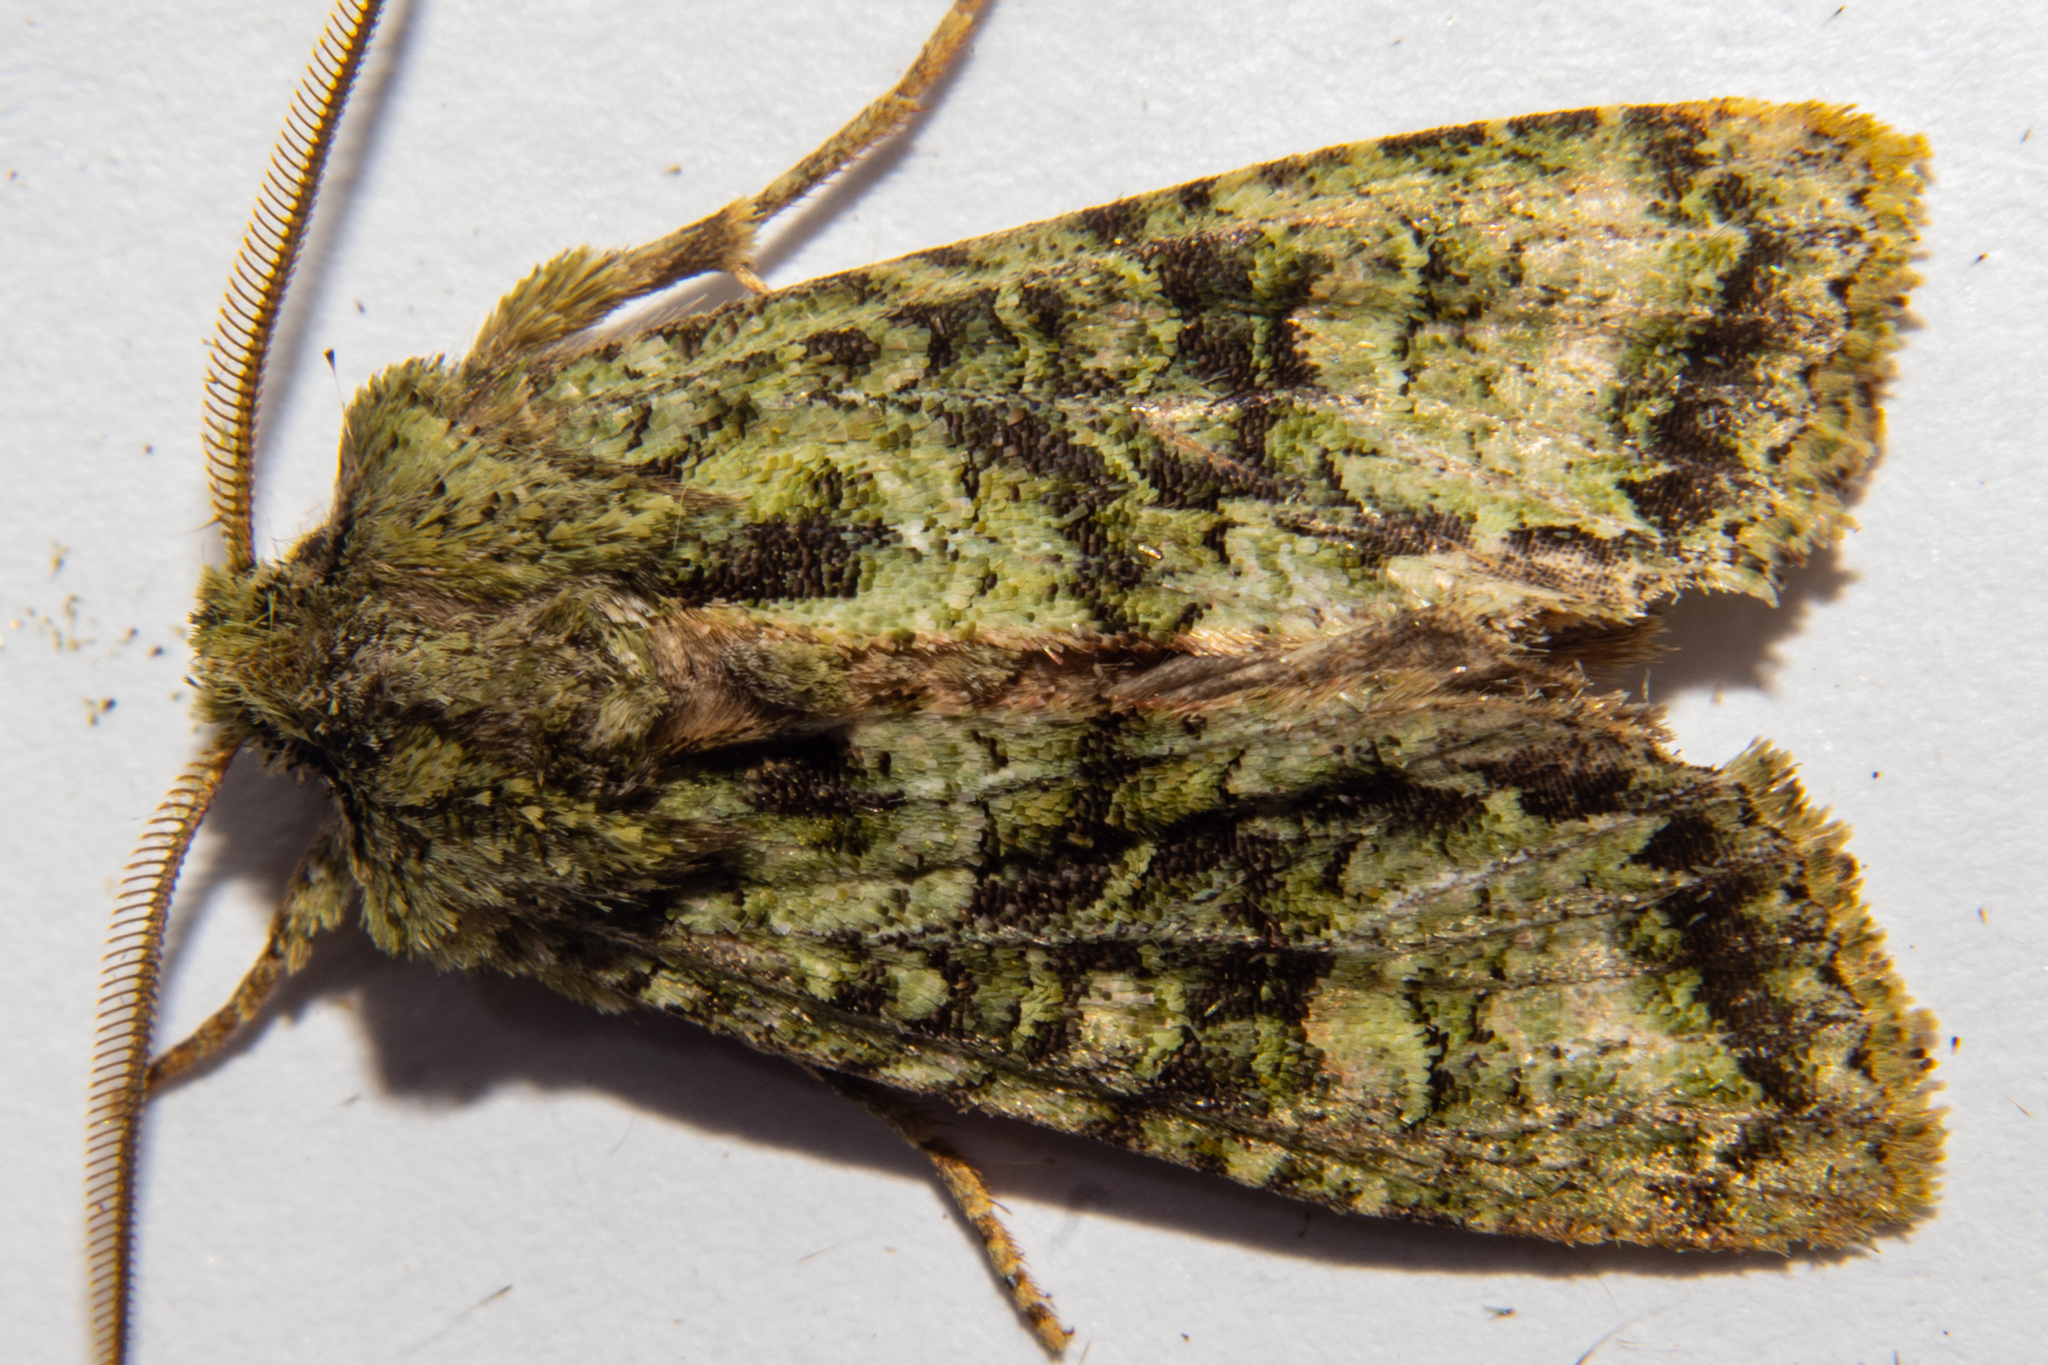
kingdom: Animalia
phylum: Arthropoda
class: Insecta
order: Lepidoptera
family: Noctuidae
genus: Ichneutica
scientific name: Ichneutica
